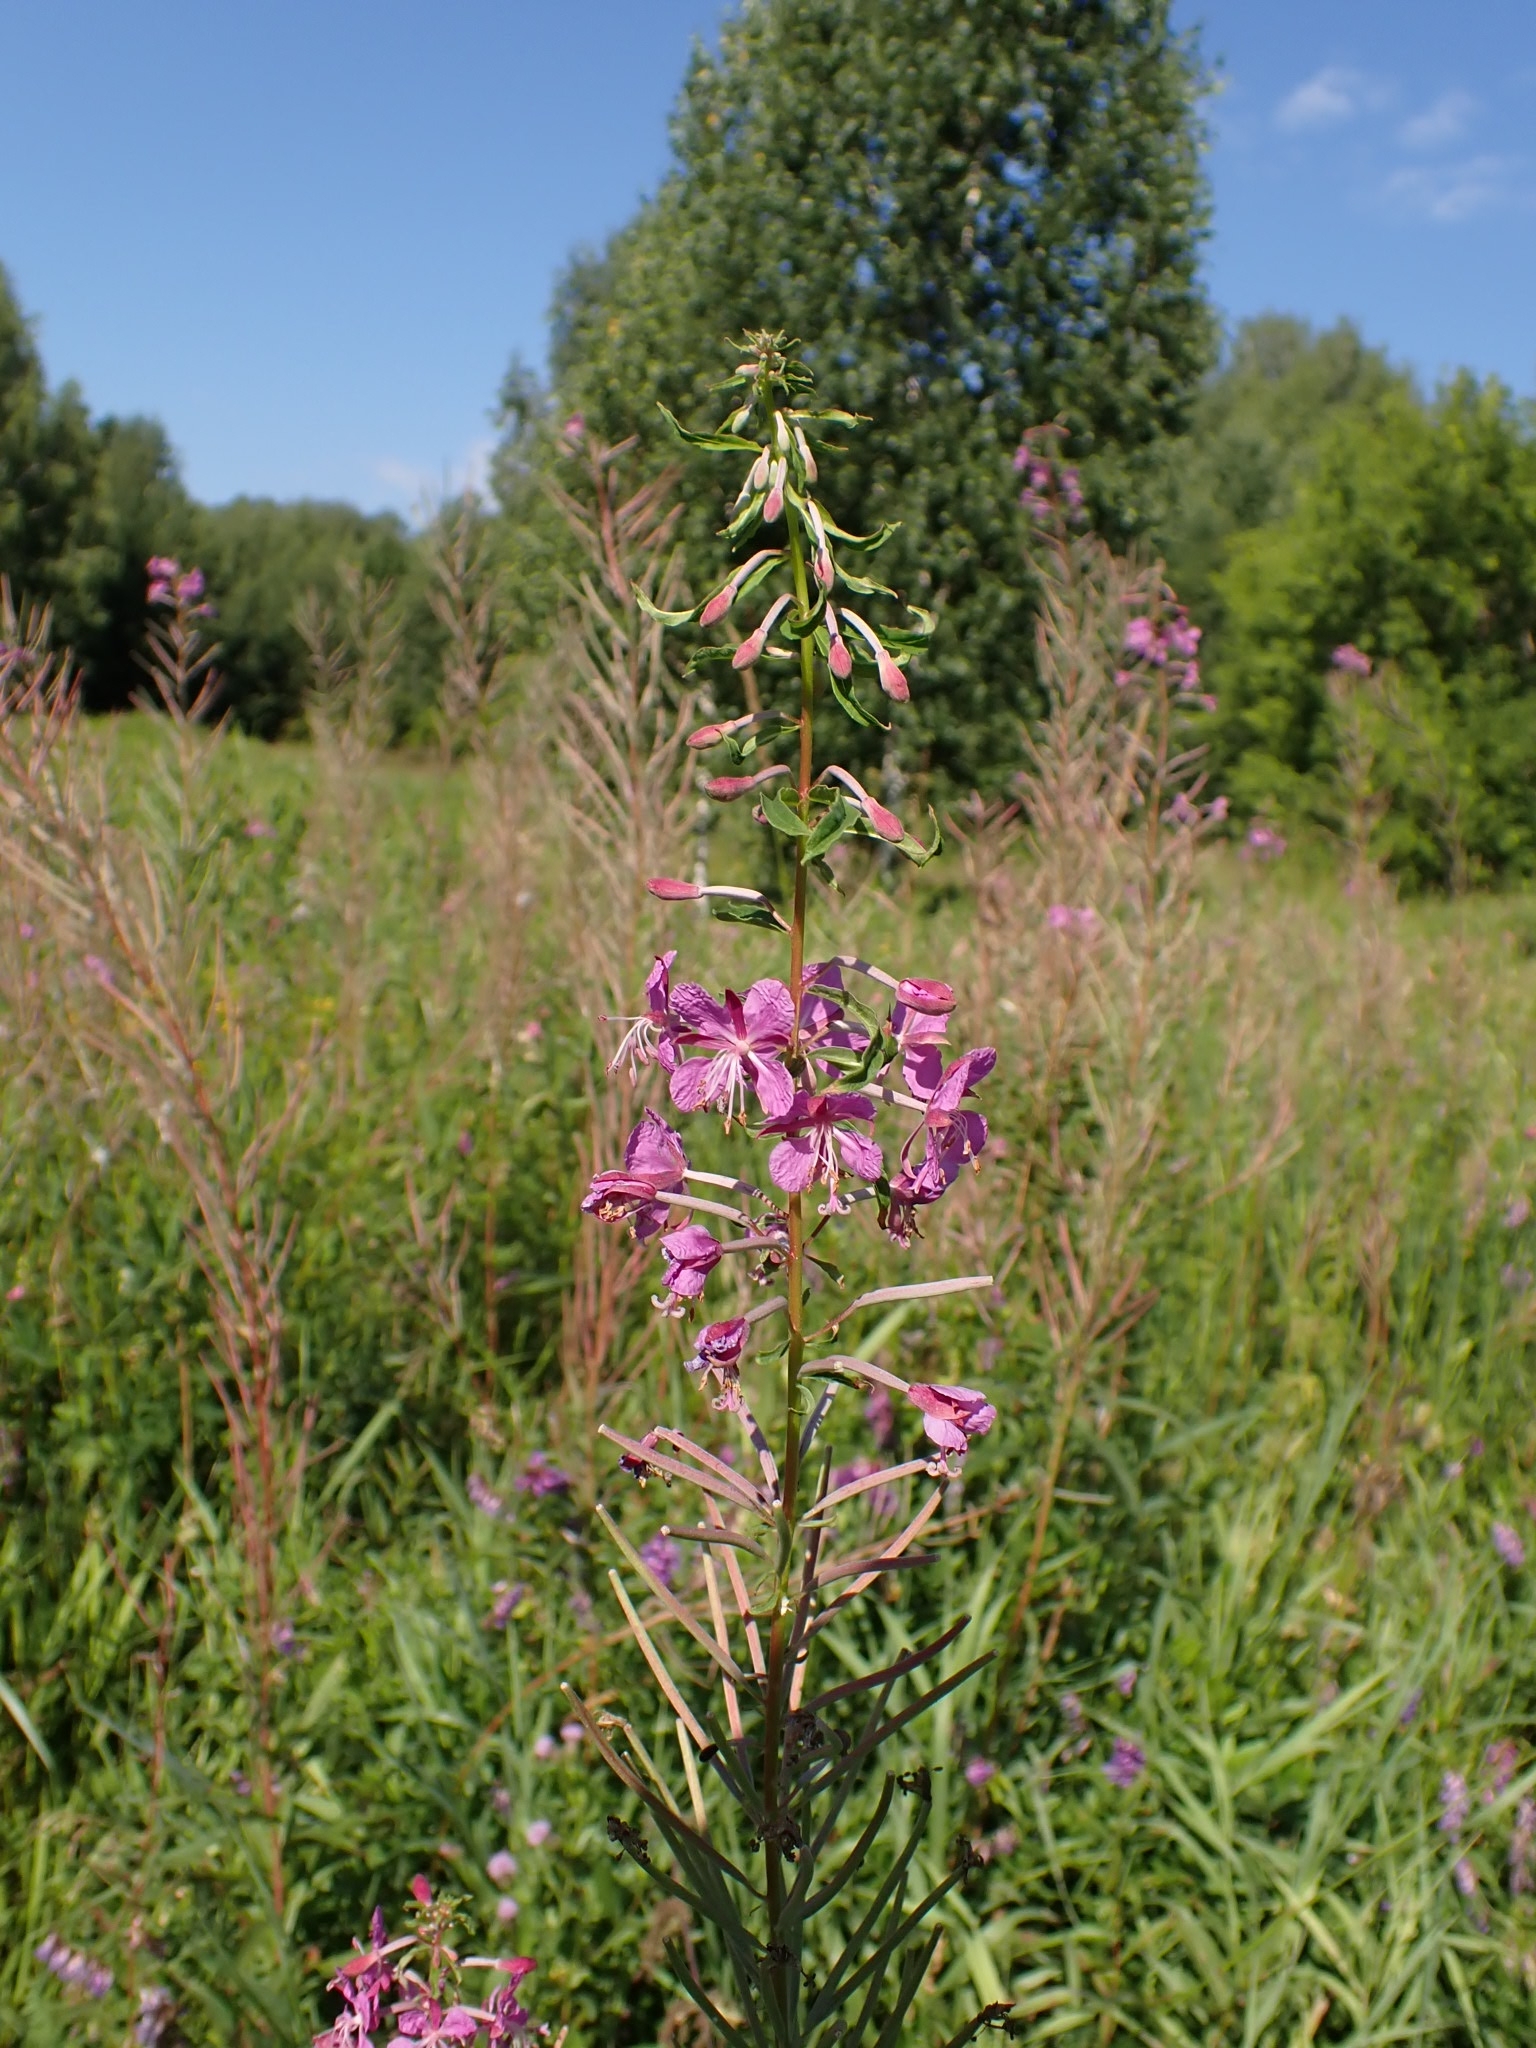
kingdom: Plantae
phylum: Tracheophyta
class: Magnoliopsida
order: Myrtales
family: Onagraceae
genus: Chamaenerion
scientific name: Chamaenerion angustifolium
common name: Fireweed
